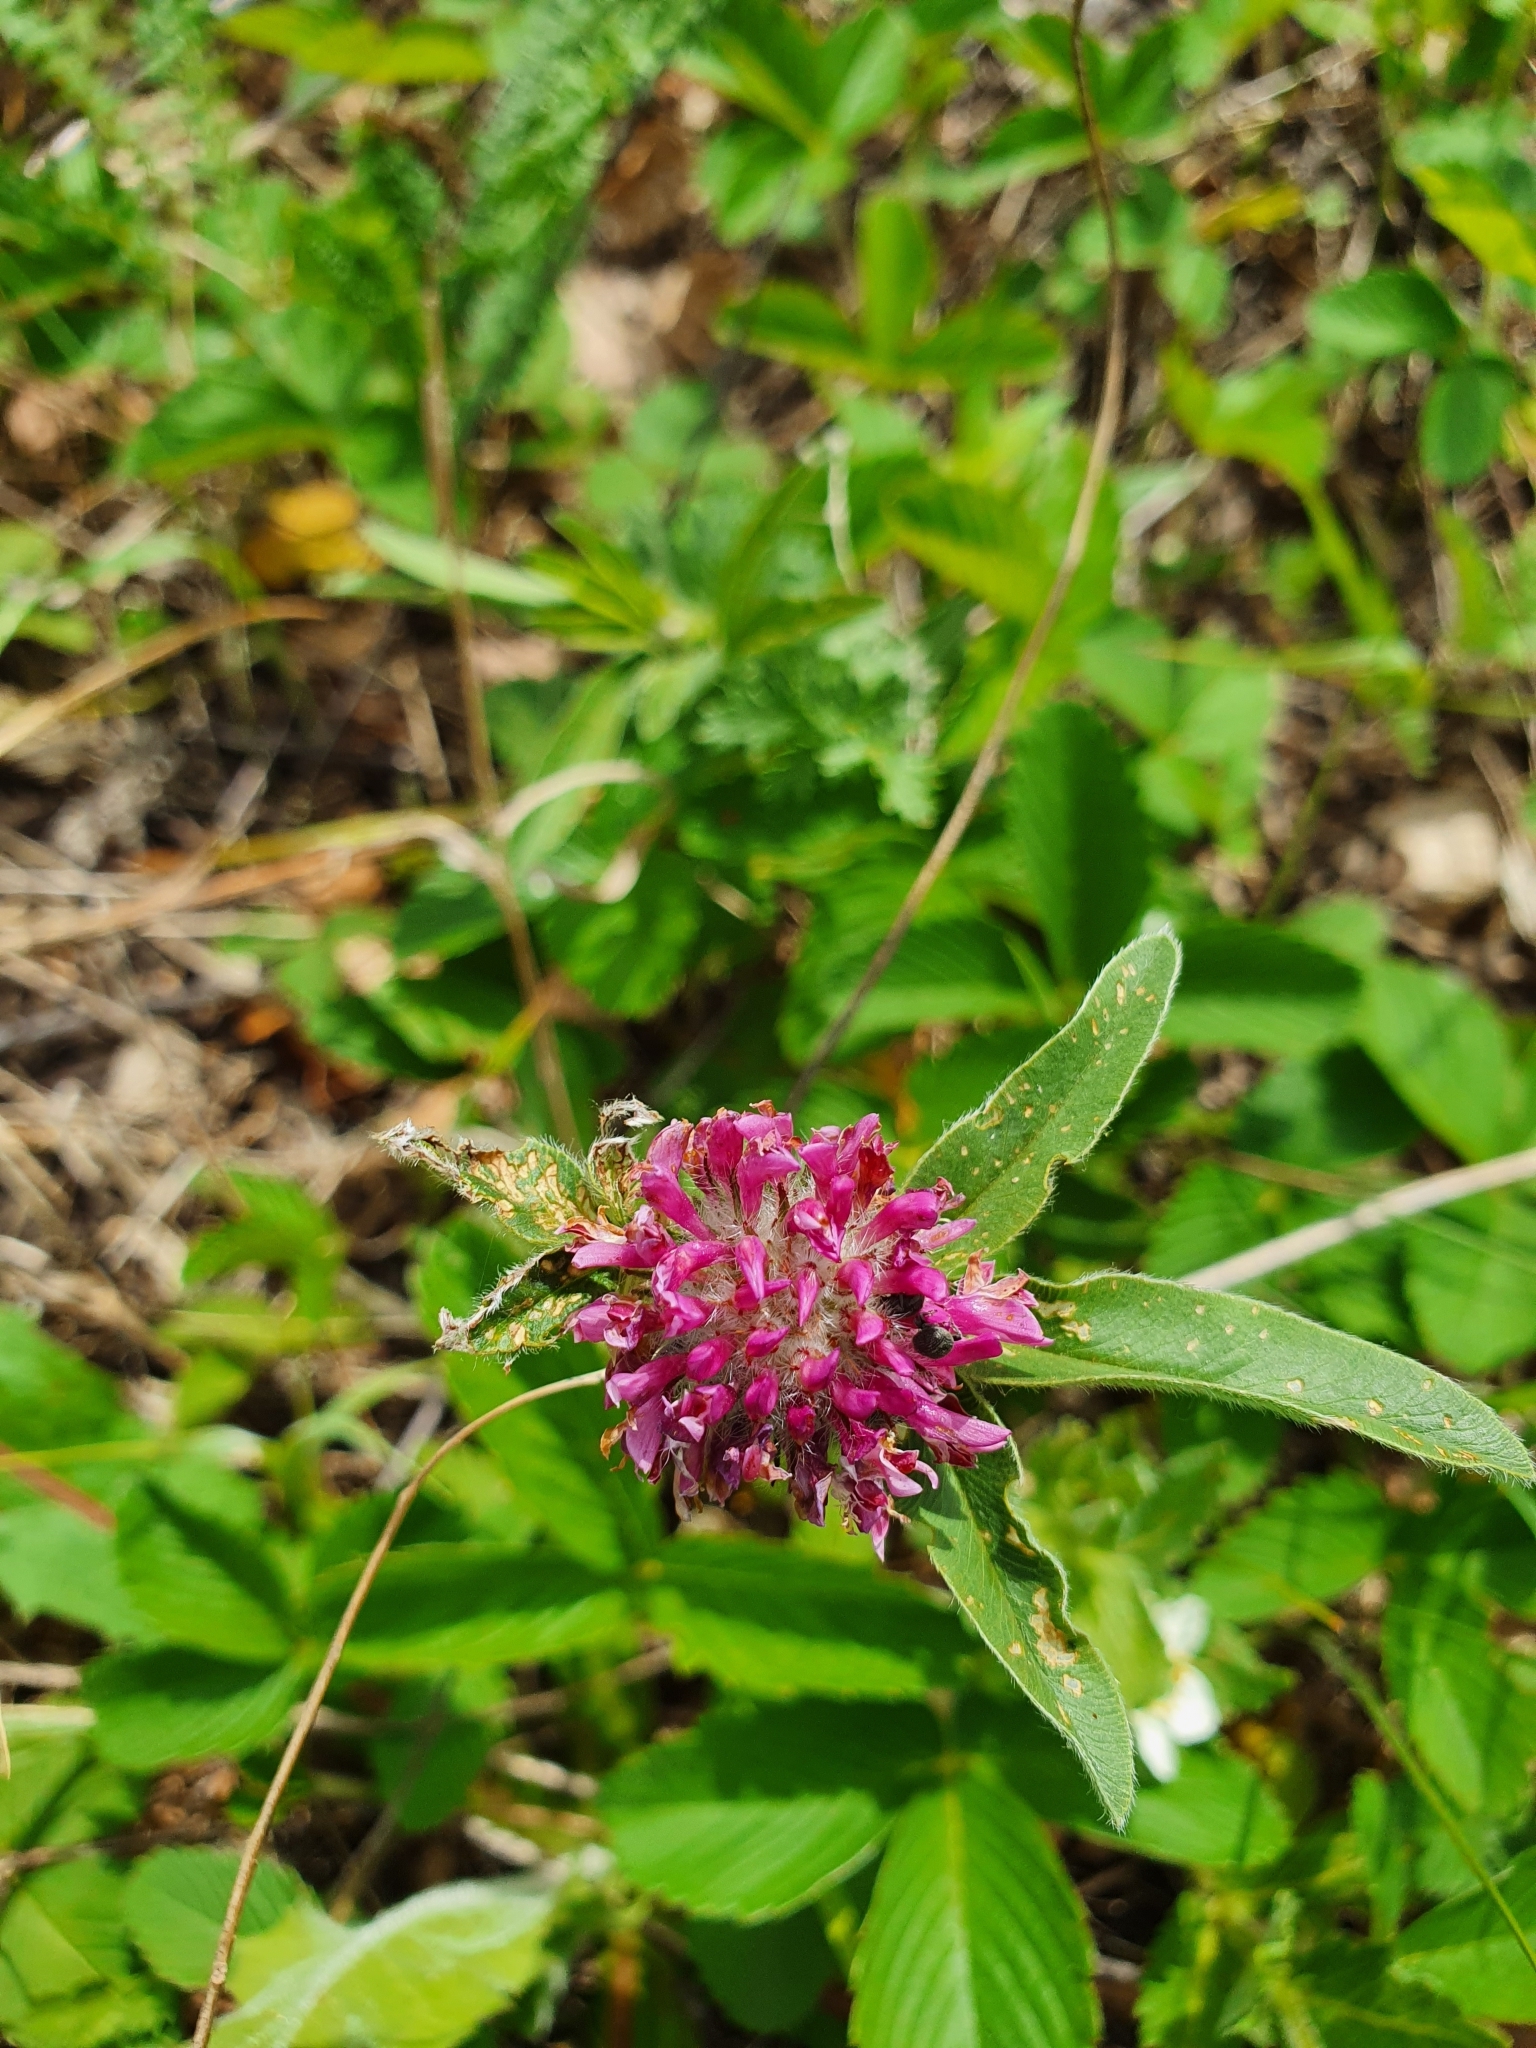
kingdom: Plantae
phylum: Tracheophyta
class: Magnoliopsida
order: Fabales
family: Fabaceae
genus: Trifolium
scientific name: Trifolium alpestre
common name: Owl-head clover
